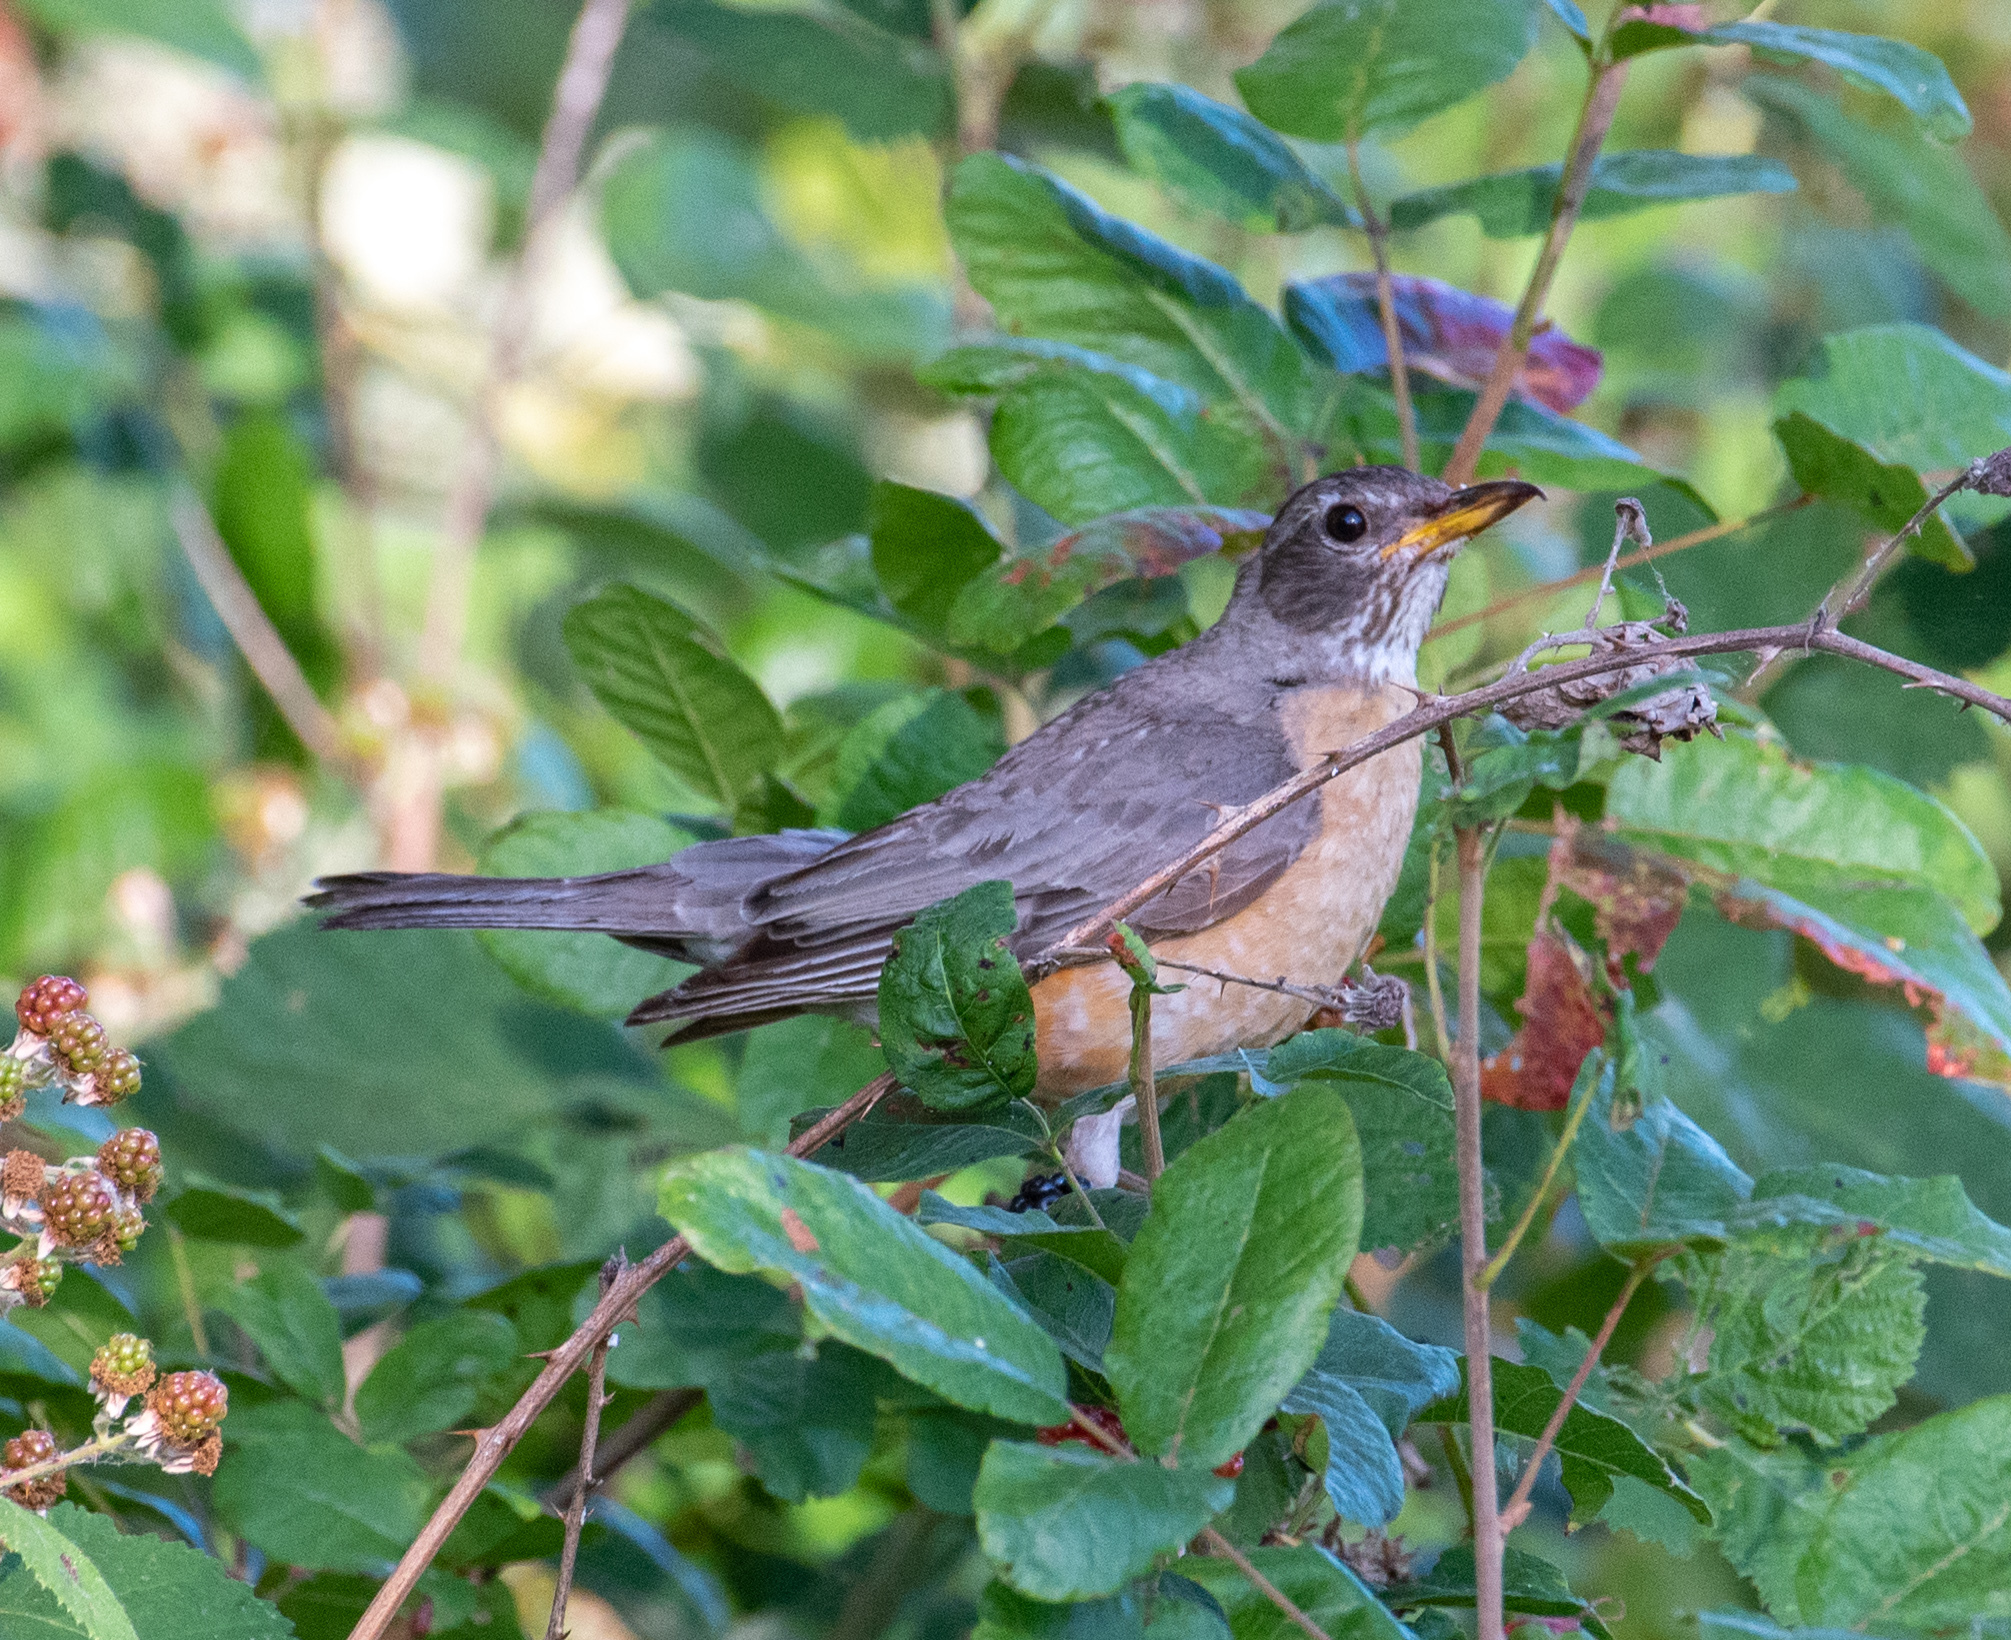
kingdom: Animalia
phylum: Chordata
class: Aves
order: Passeriformes
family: Turdidae
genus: Turdus
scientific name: Turdus migratorius
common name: American robin
